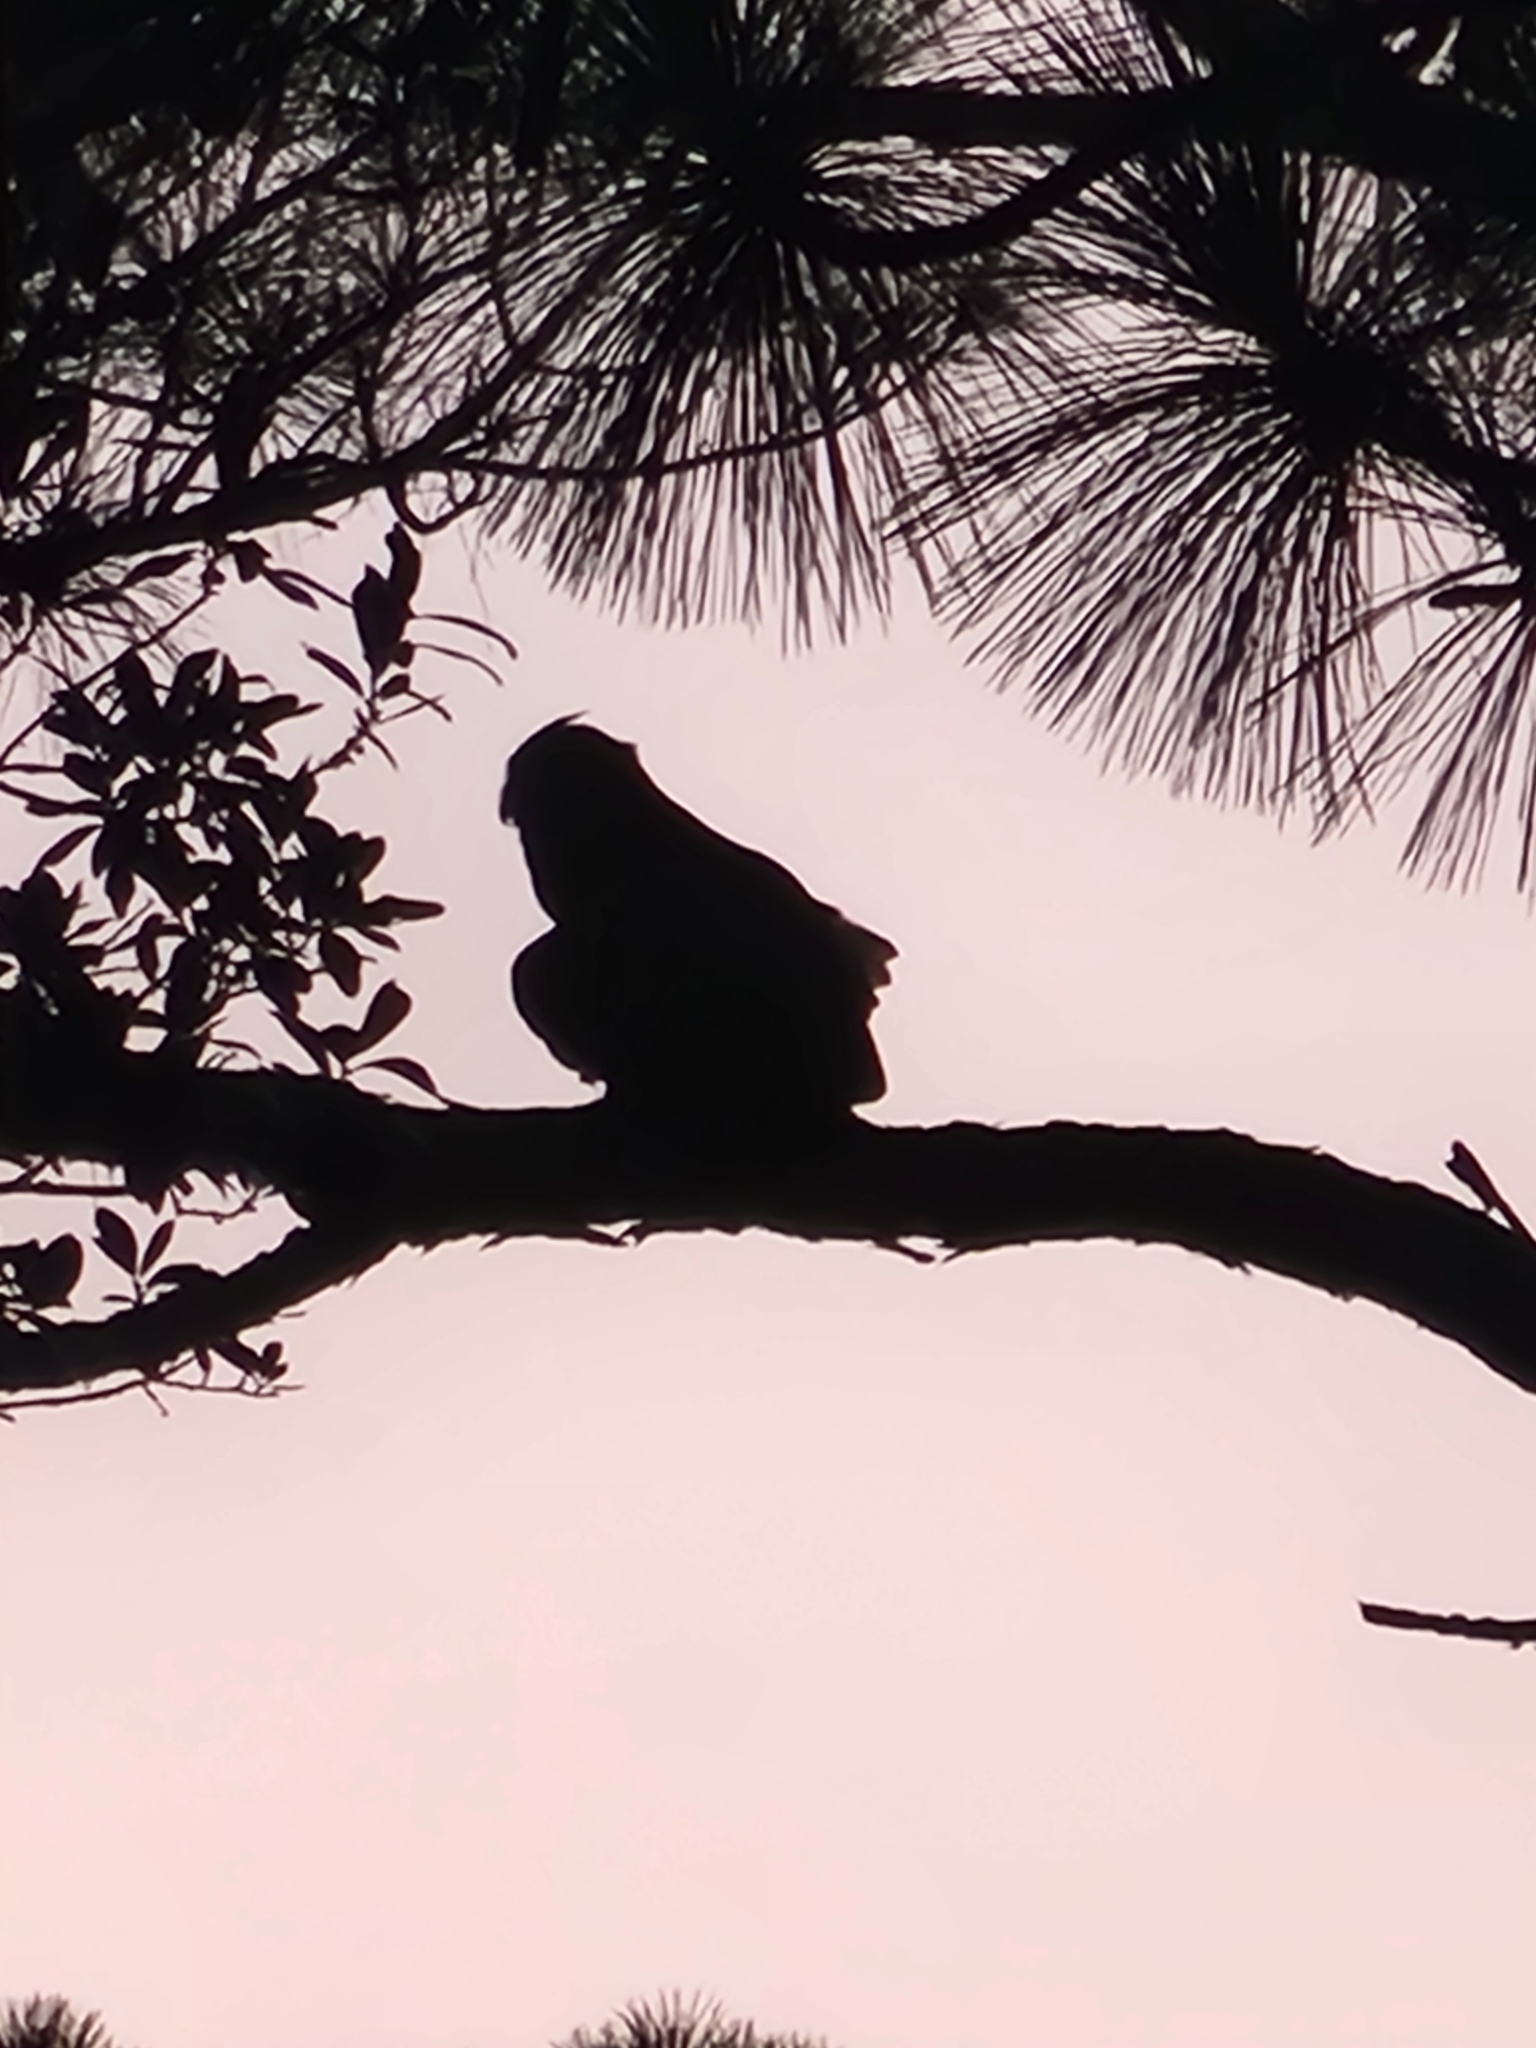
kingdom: Animalia
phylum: Chordata
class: Aves
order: Strigiformes
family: Strigidae
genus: Bubo
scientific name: Bubo virginianus
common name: Great horned owl
